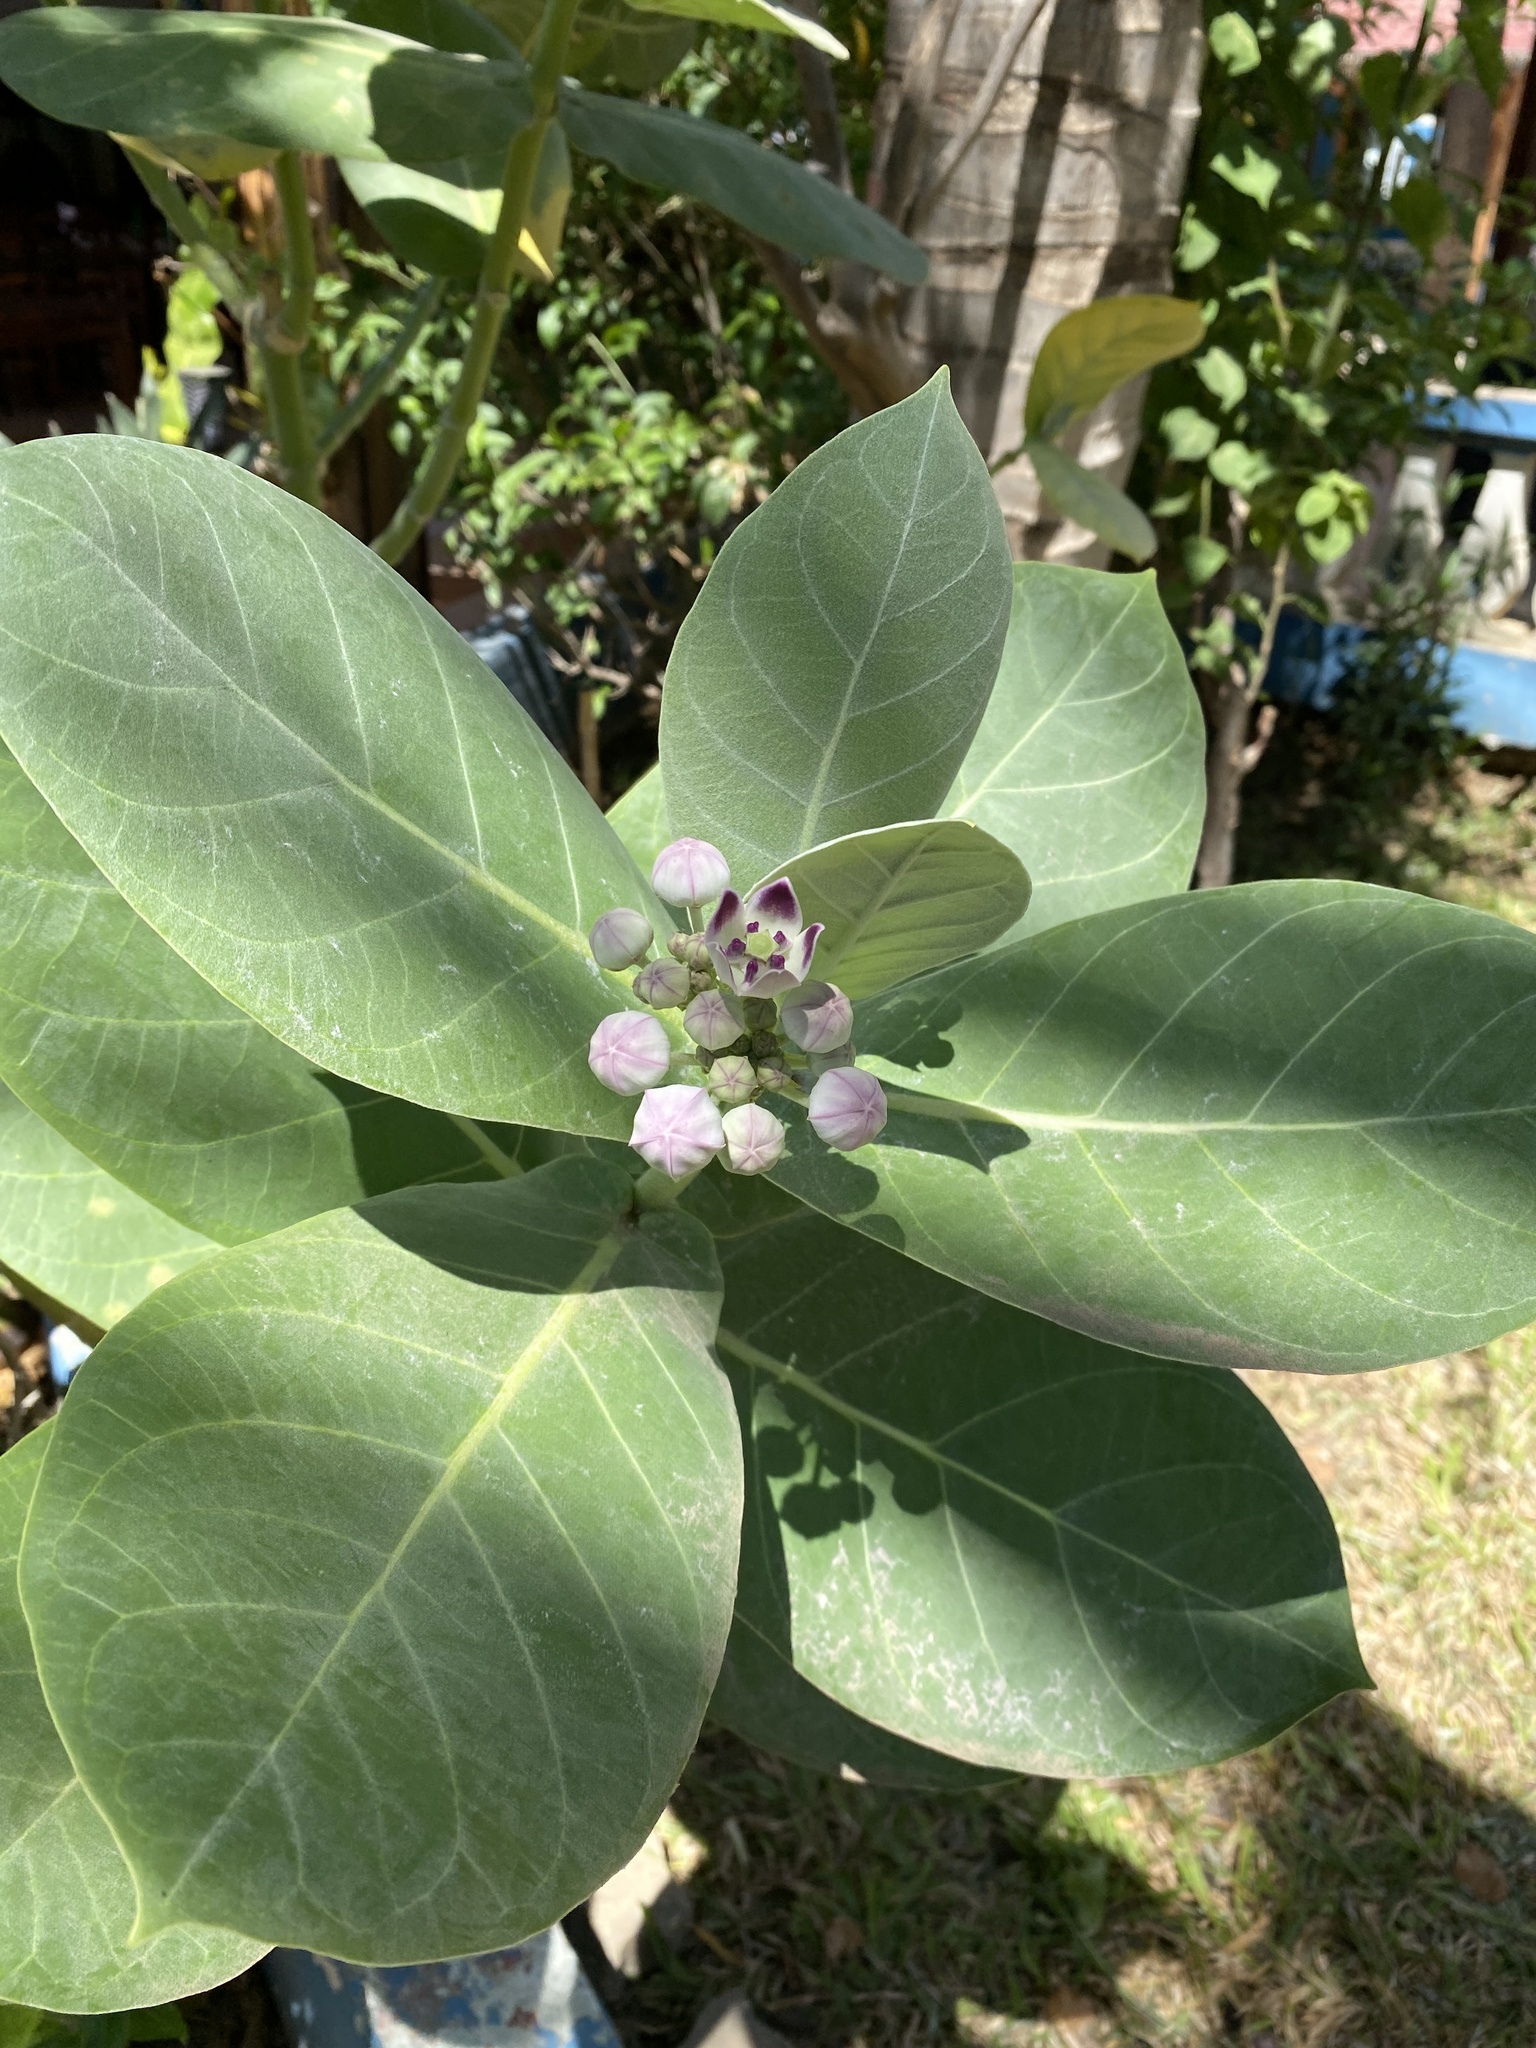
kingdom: Plantae
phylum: Tracheophyta
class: Magnoliopsida
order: Gentianales
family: Apocynaceae
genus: Calotropis
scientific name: Calotropis procera
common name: Roostertree
